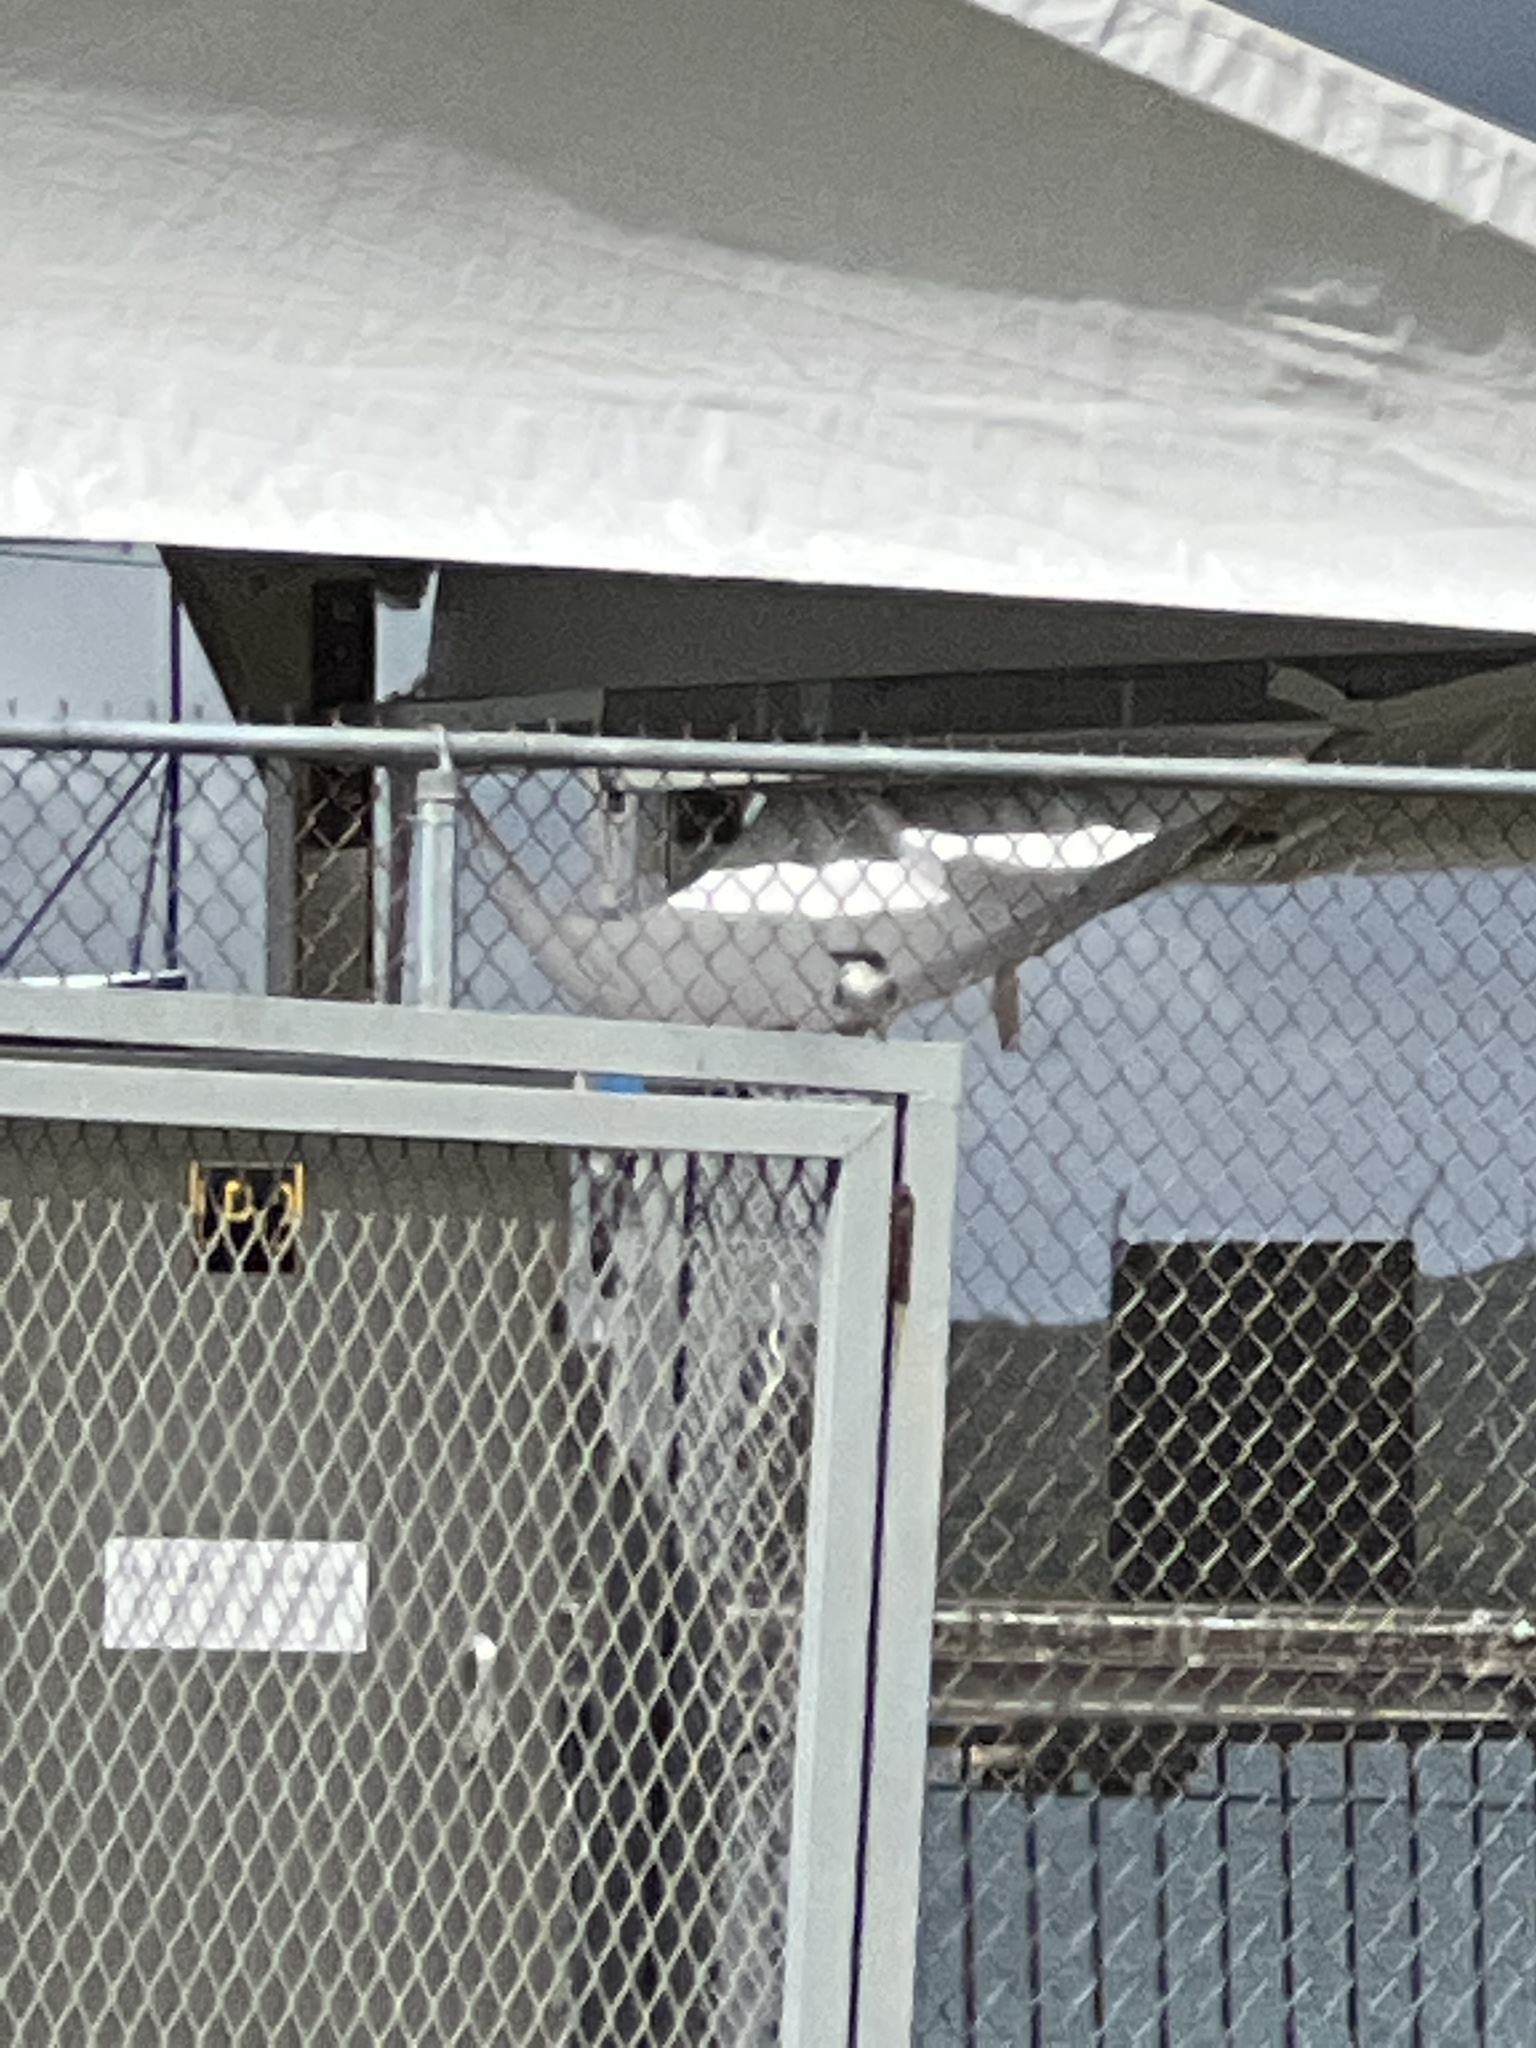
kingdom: Animalia
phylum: Chordata
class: Aves
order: Passeriformes
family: Tyrannidae
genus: Tyrannus
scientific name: Tyrannus dominicensis
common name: Gray kingbird
